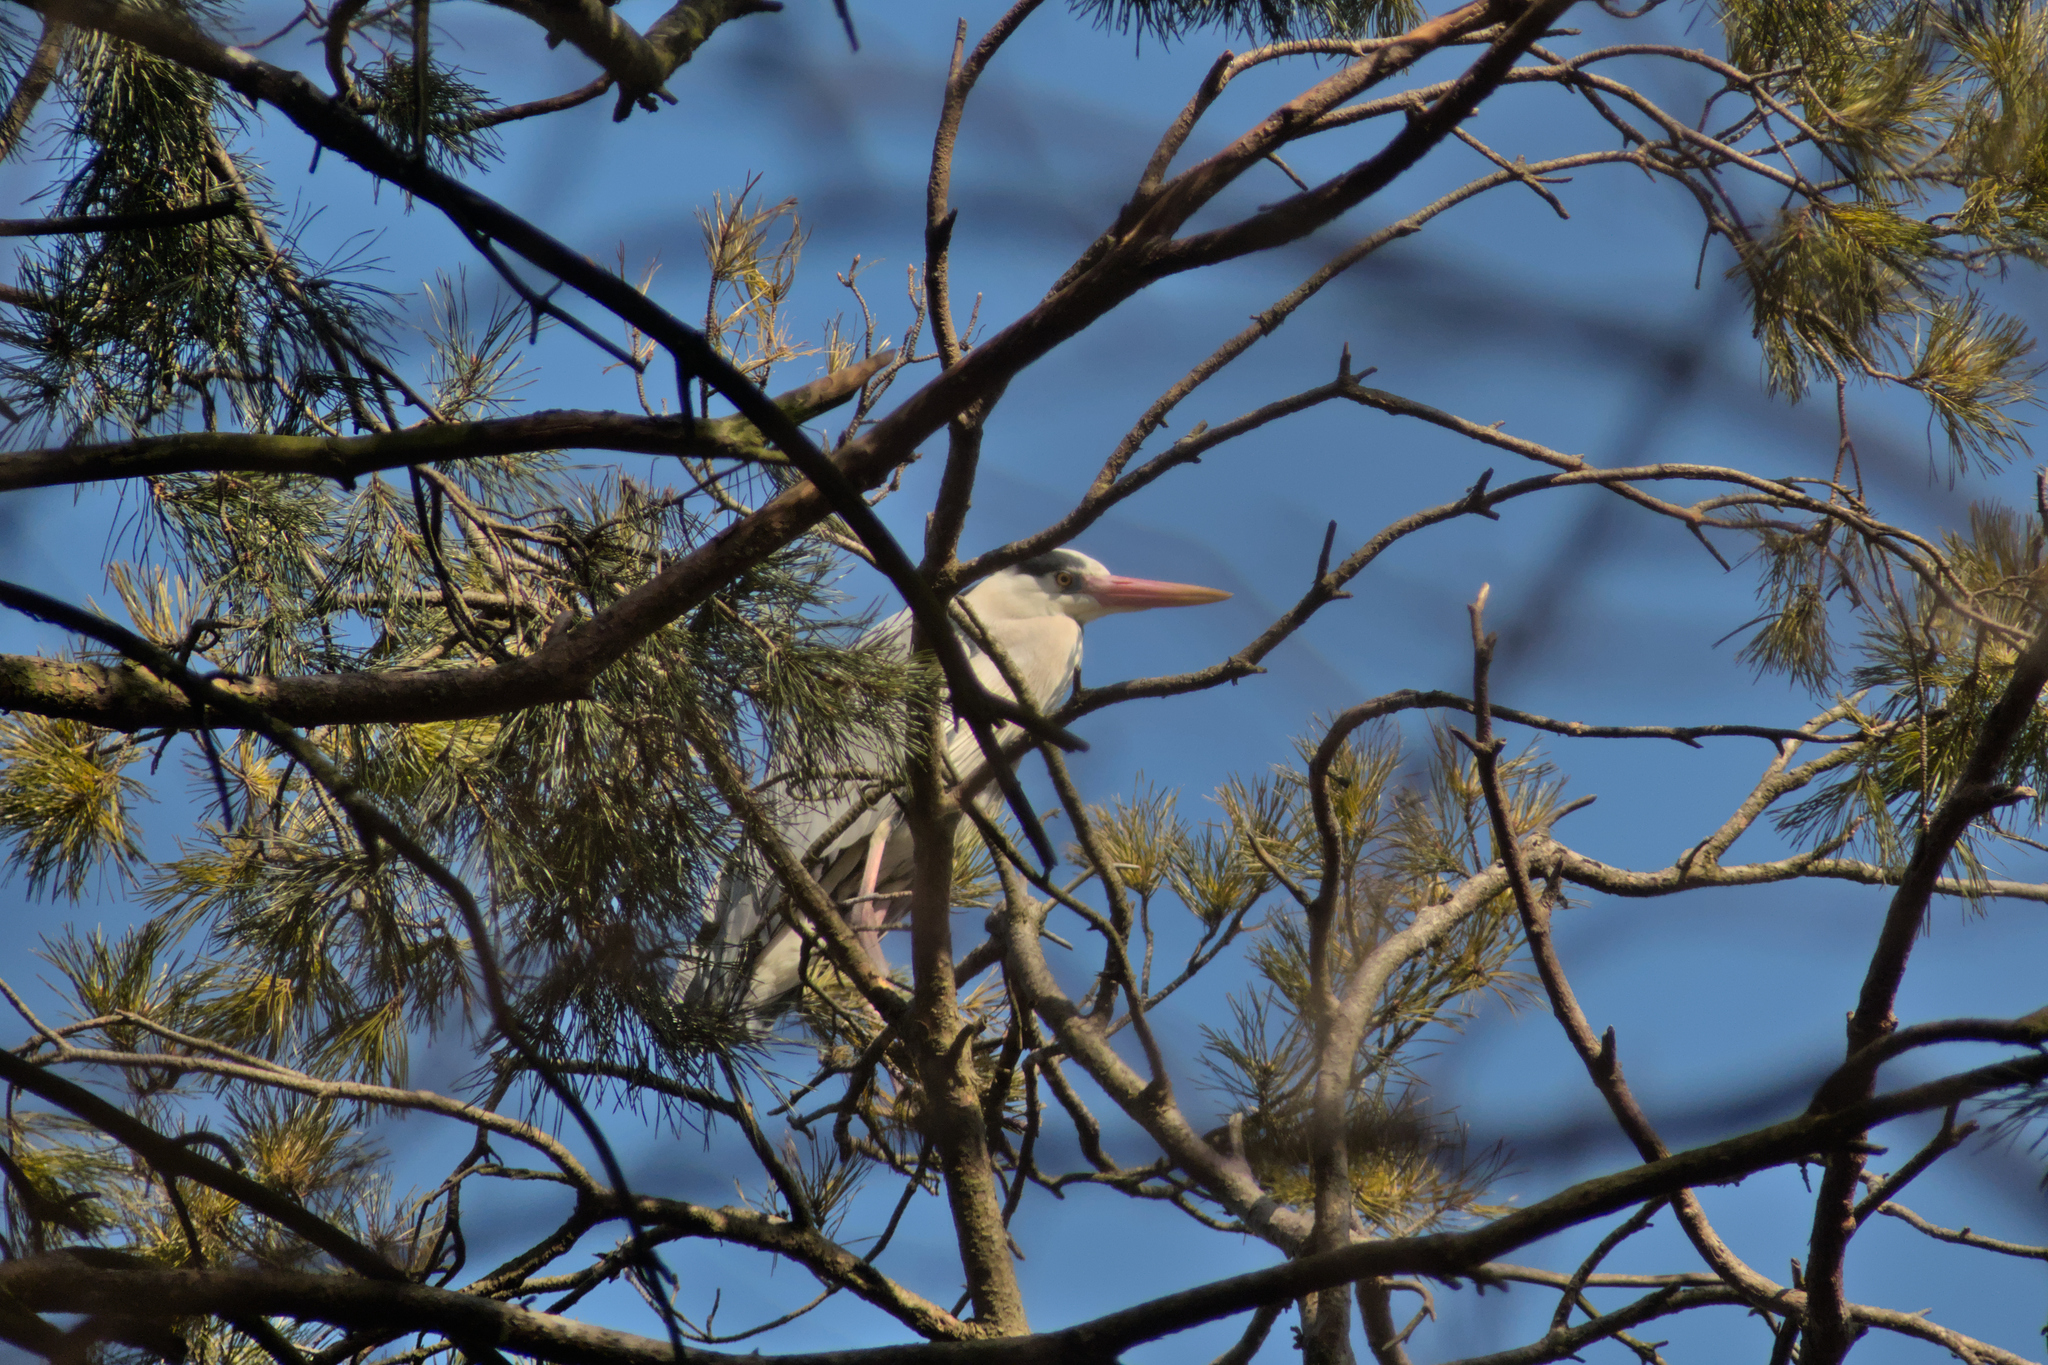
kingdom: Animalia
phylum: Chordata
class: Aves
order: Pelecaniformes
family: Ardeidae
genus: Ardea
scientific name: Ardea cinerea
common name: Grey heron
